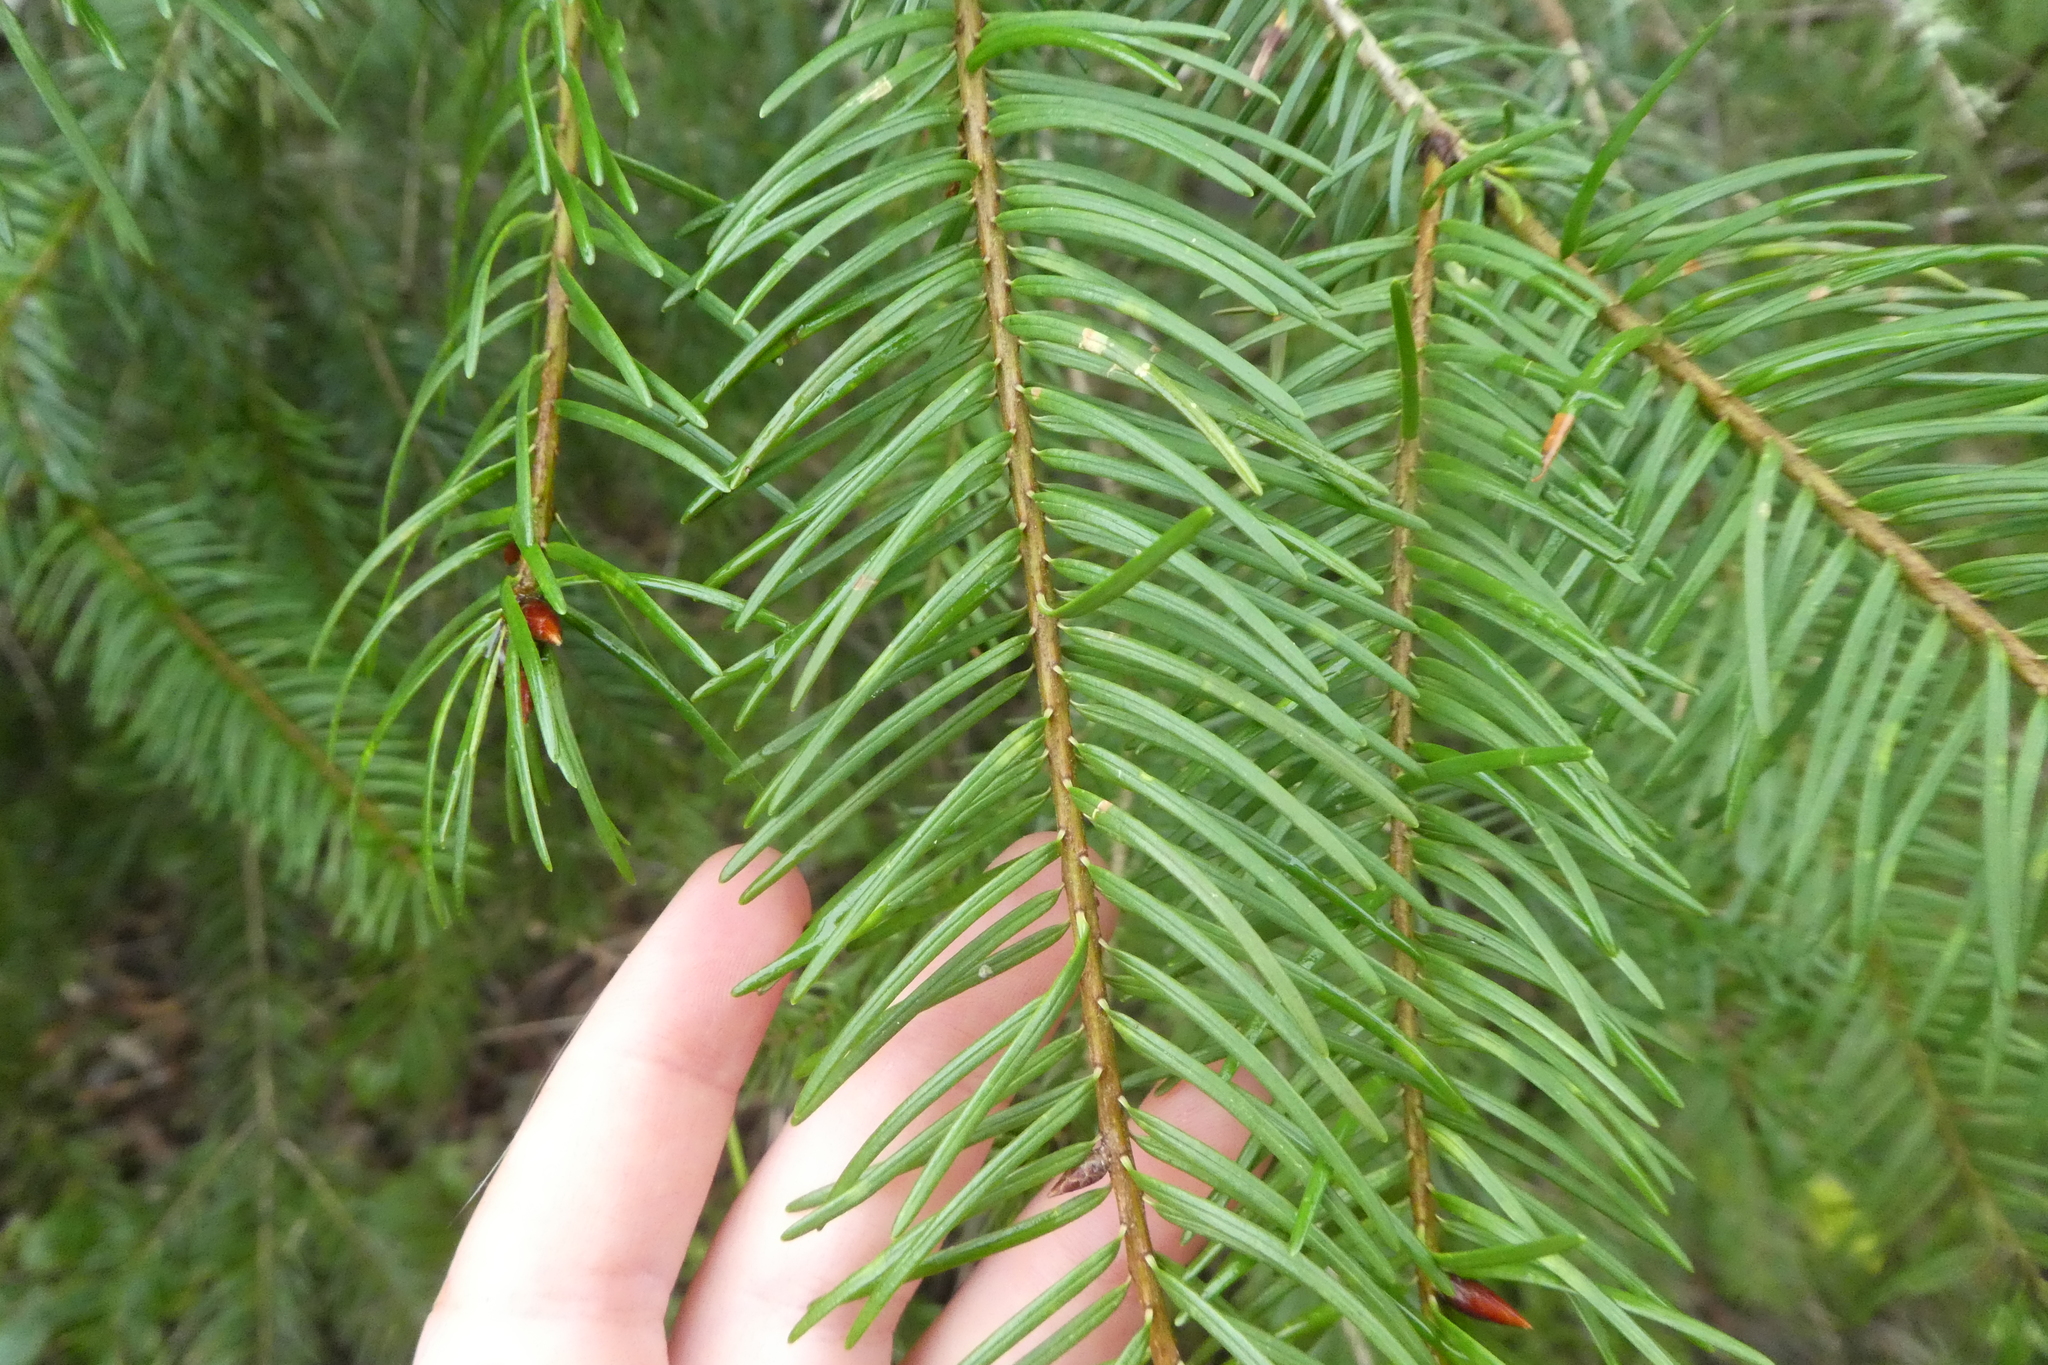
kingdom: Plantae
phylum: Tracheophyta
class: Pinopsida
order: Pinales
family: Pinaceae
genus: Pseudotsuga
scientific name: Pseudotsuga menziesii
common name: Douglas fir
